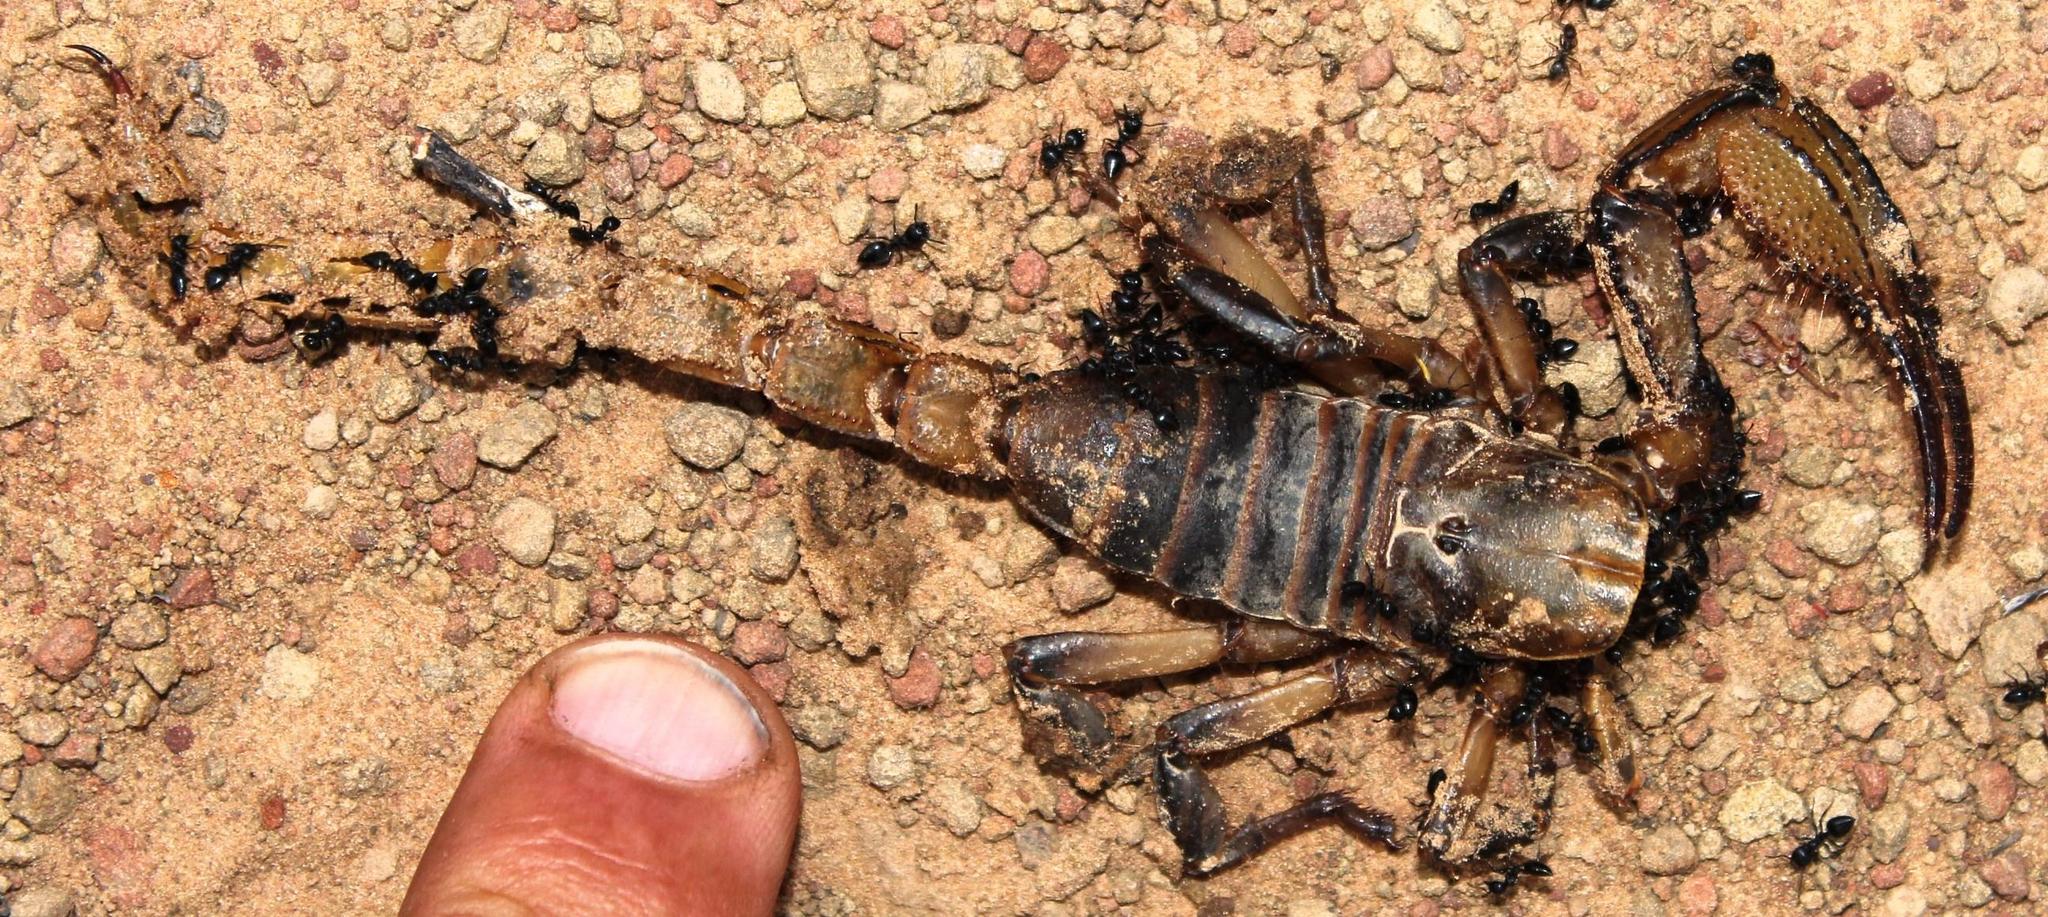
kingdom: Animalia
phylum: Arthropoda
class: Arachnida
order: Scorpiones
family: Scorpionidae
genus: Opistophthalmus
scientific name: Opistophthalmus macer
